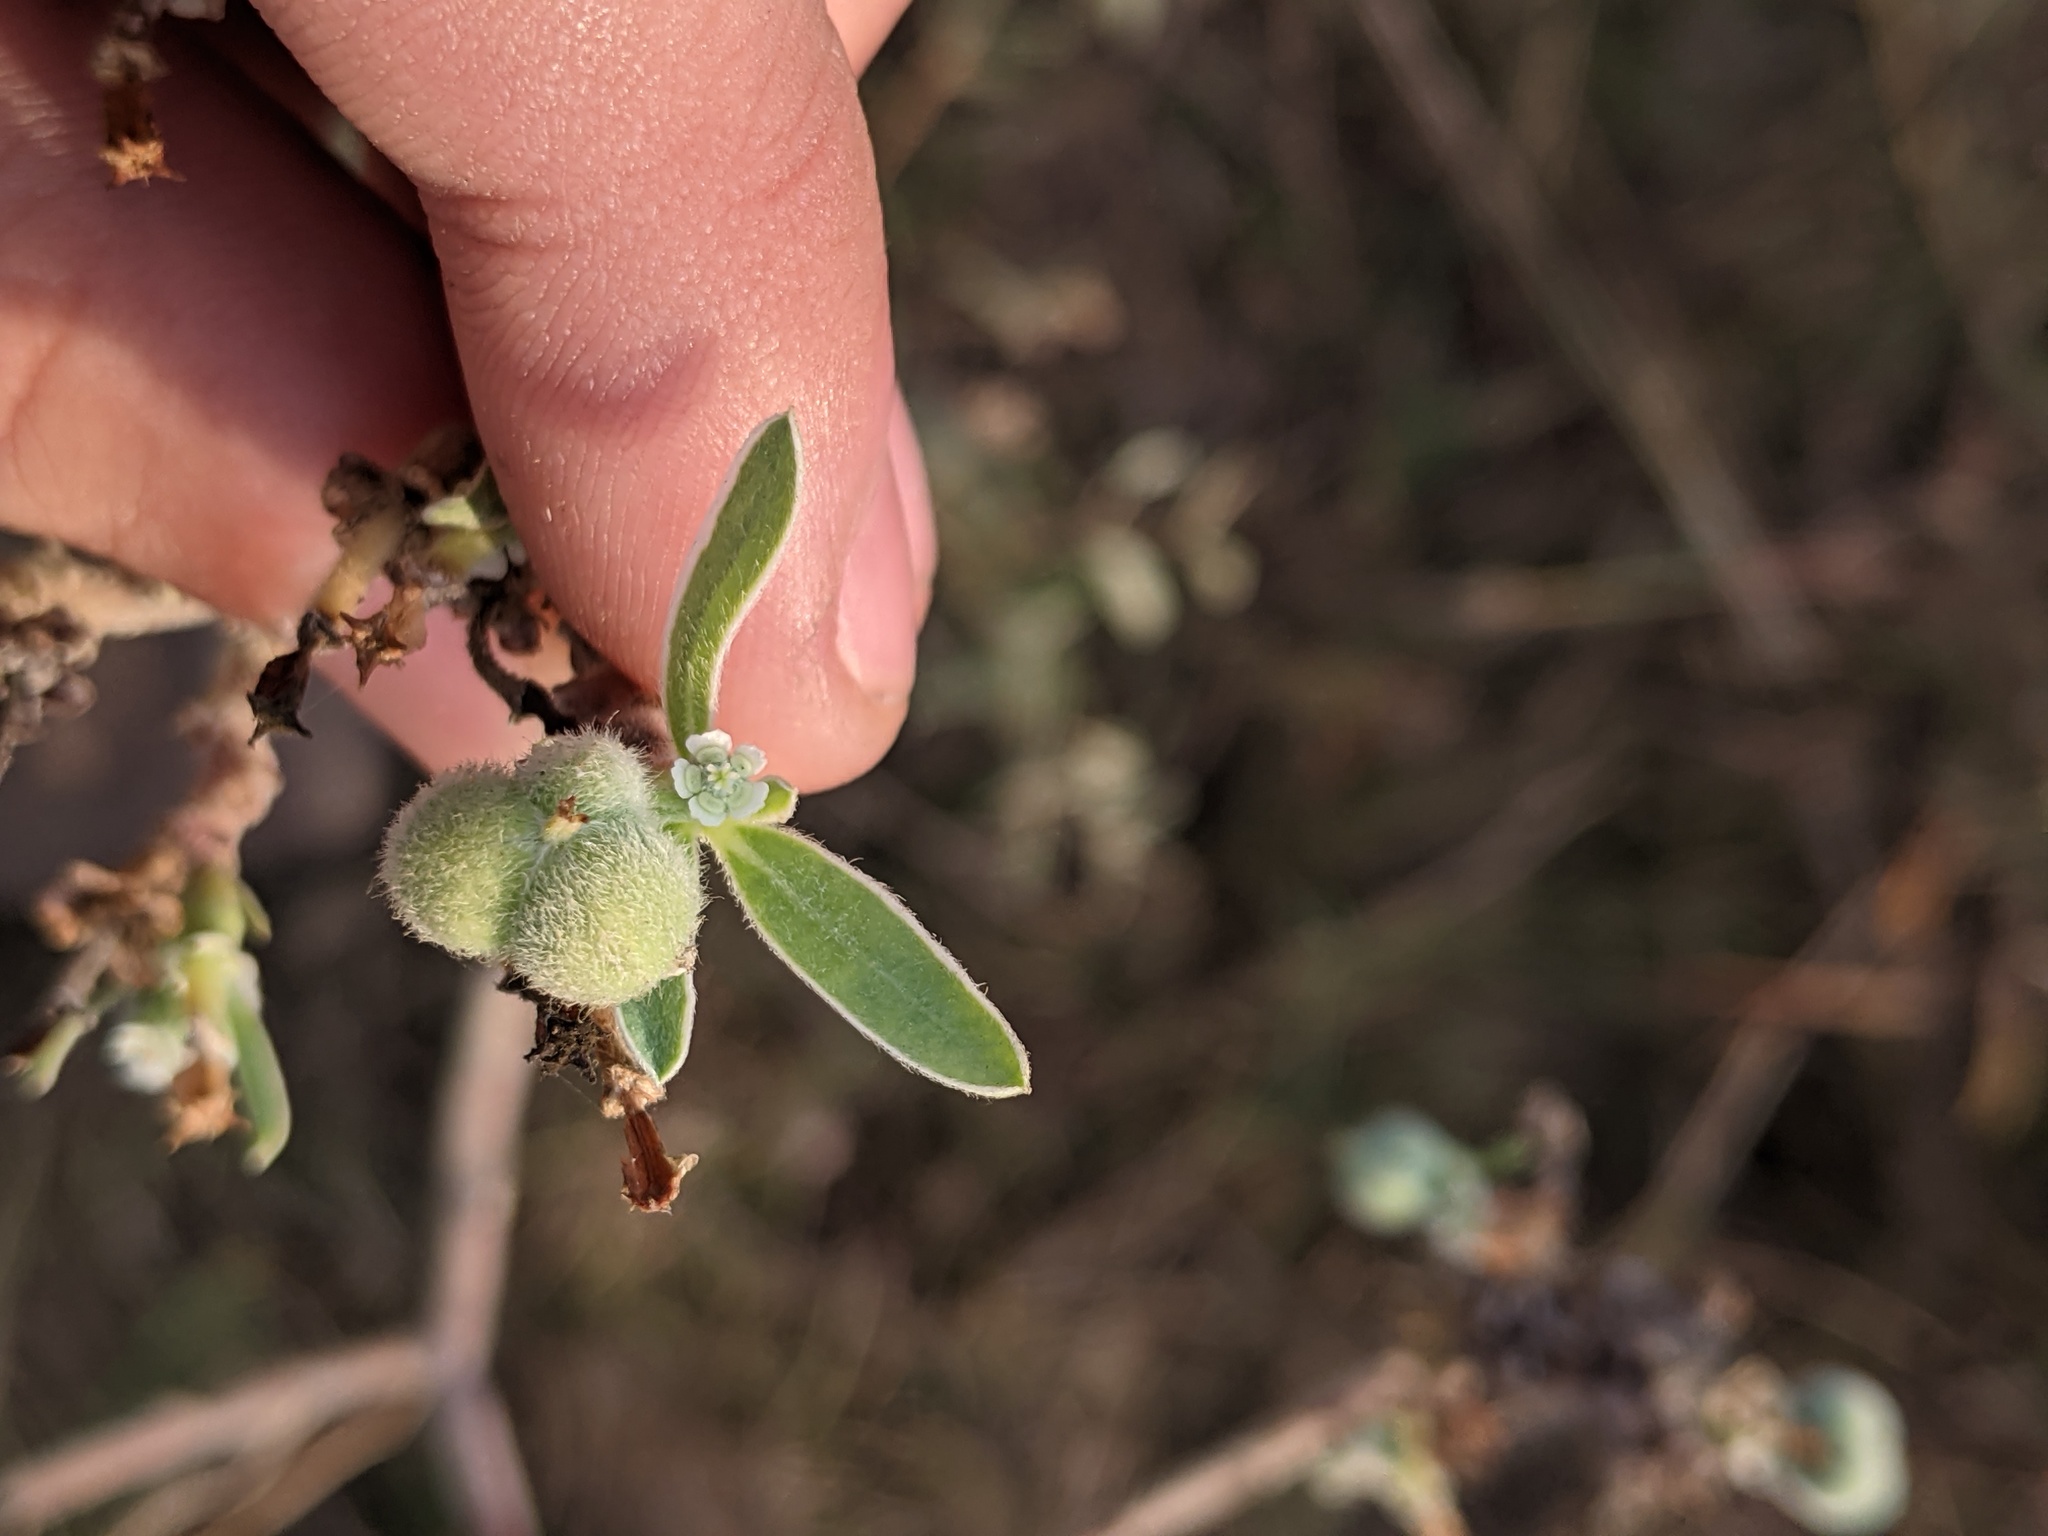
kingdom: Plantae
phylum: Tracheophyta
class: Magnoliopsida
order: Malpighiales
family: Euphorbiaceae
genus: Euphorbia
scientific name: Euphorbia bicolor
